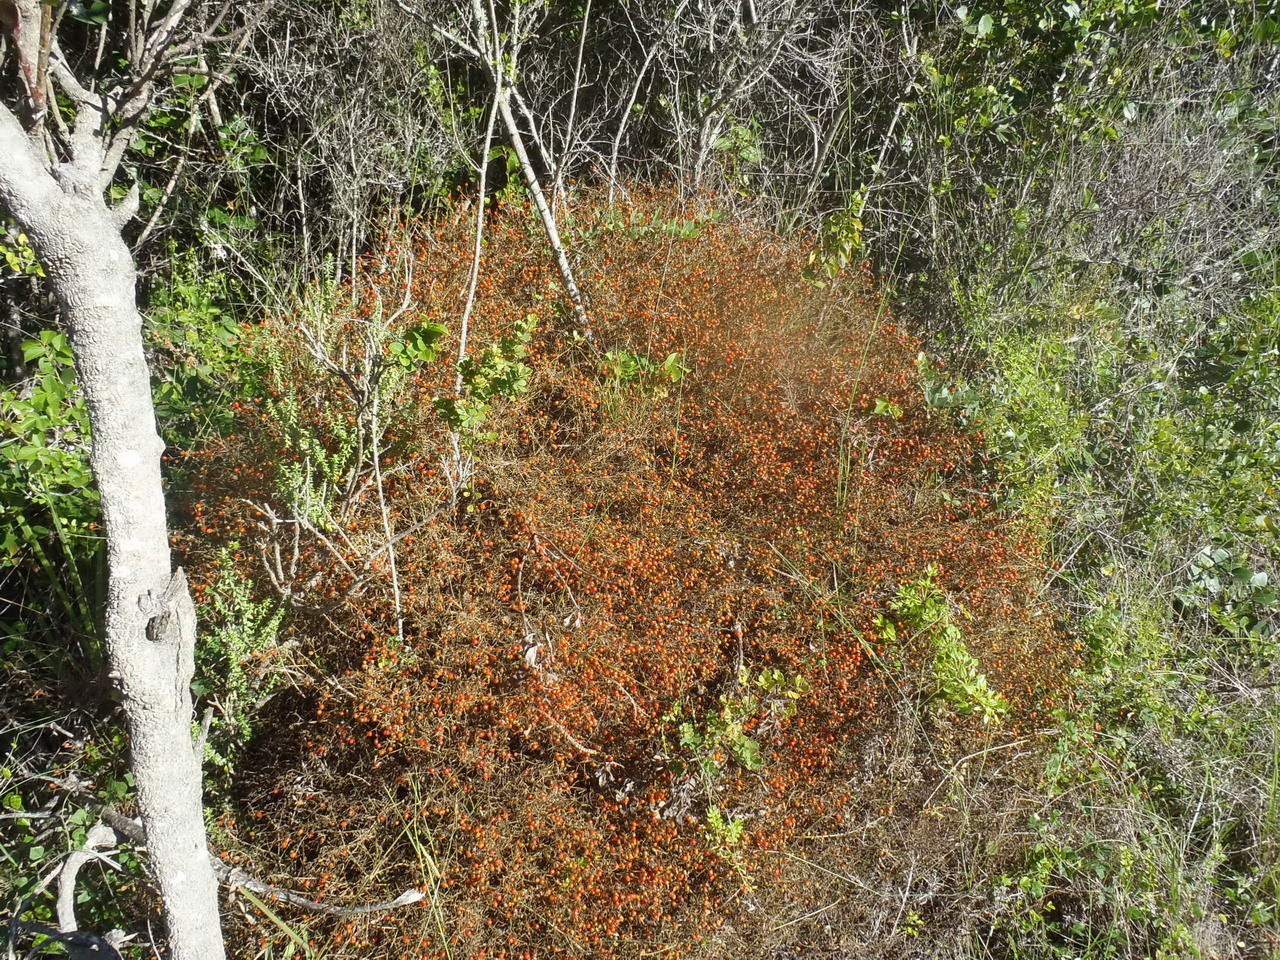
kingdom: Plantae
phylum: Tracheophyta
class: Magnoliopsida
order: Gentianales
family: Gentianaceae
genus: Chironia
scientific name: Chironia baccifera
